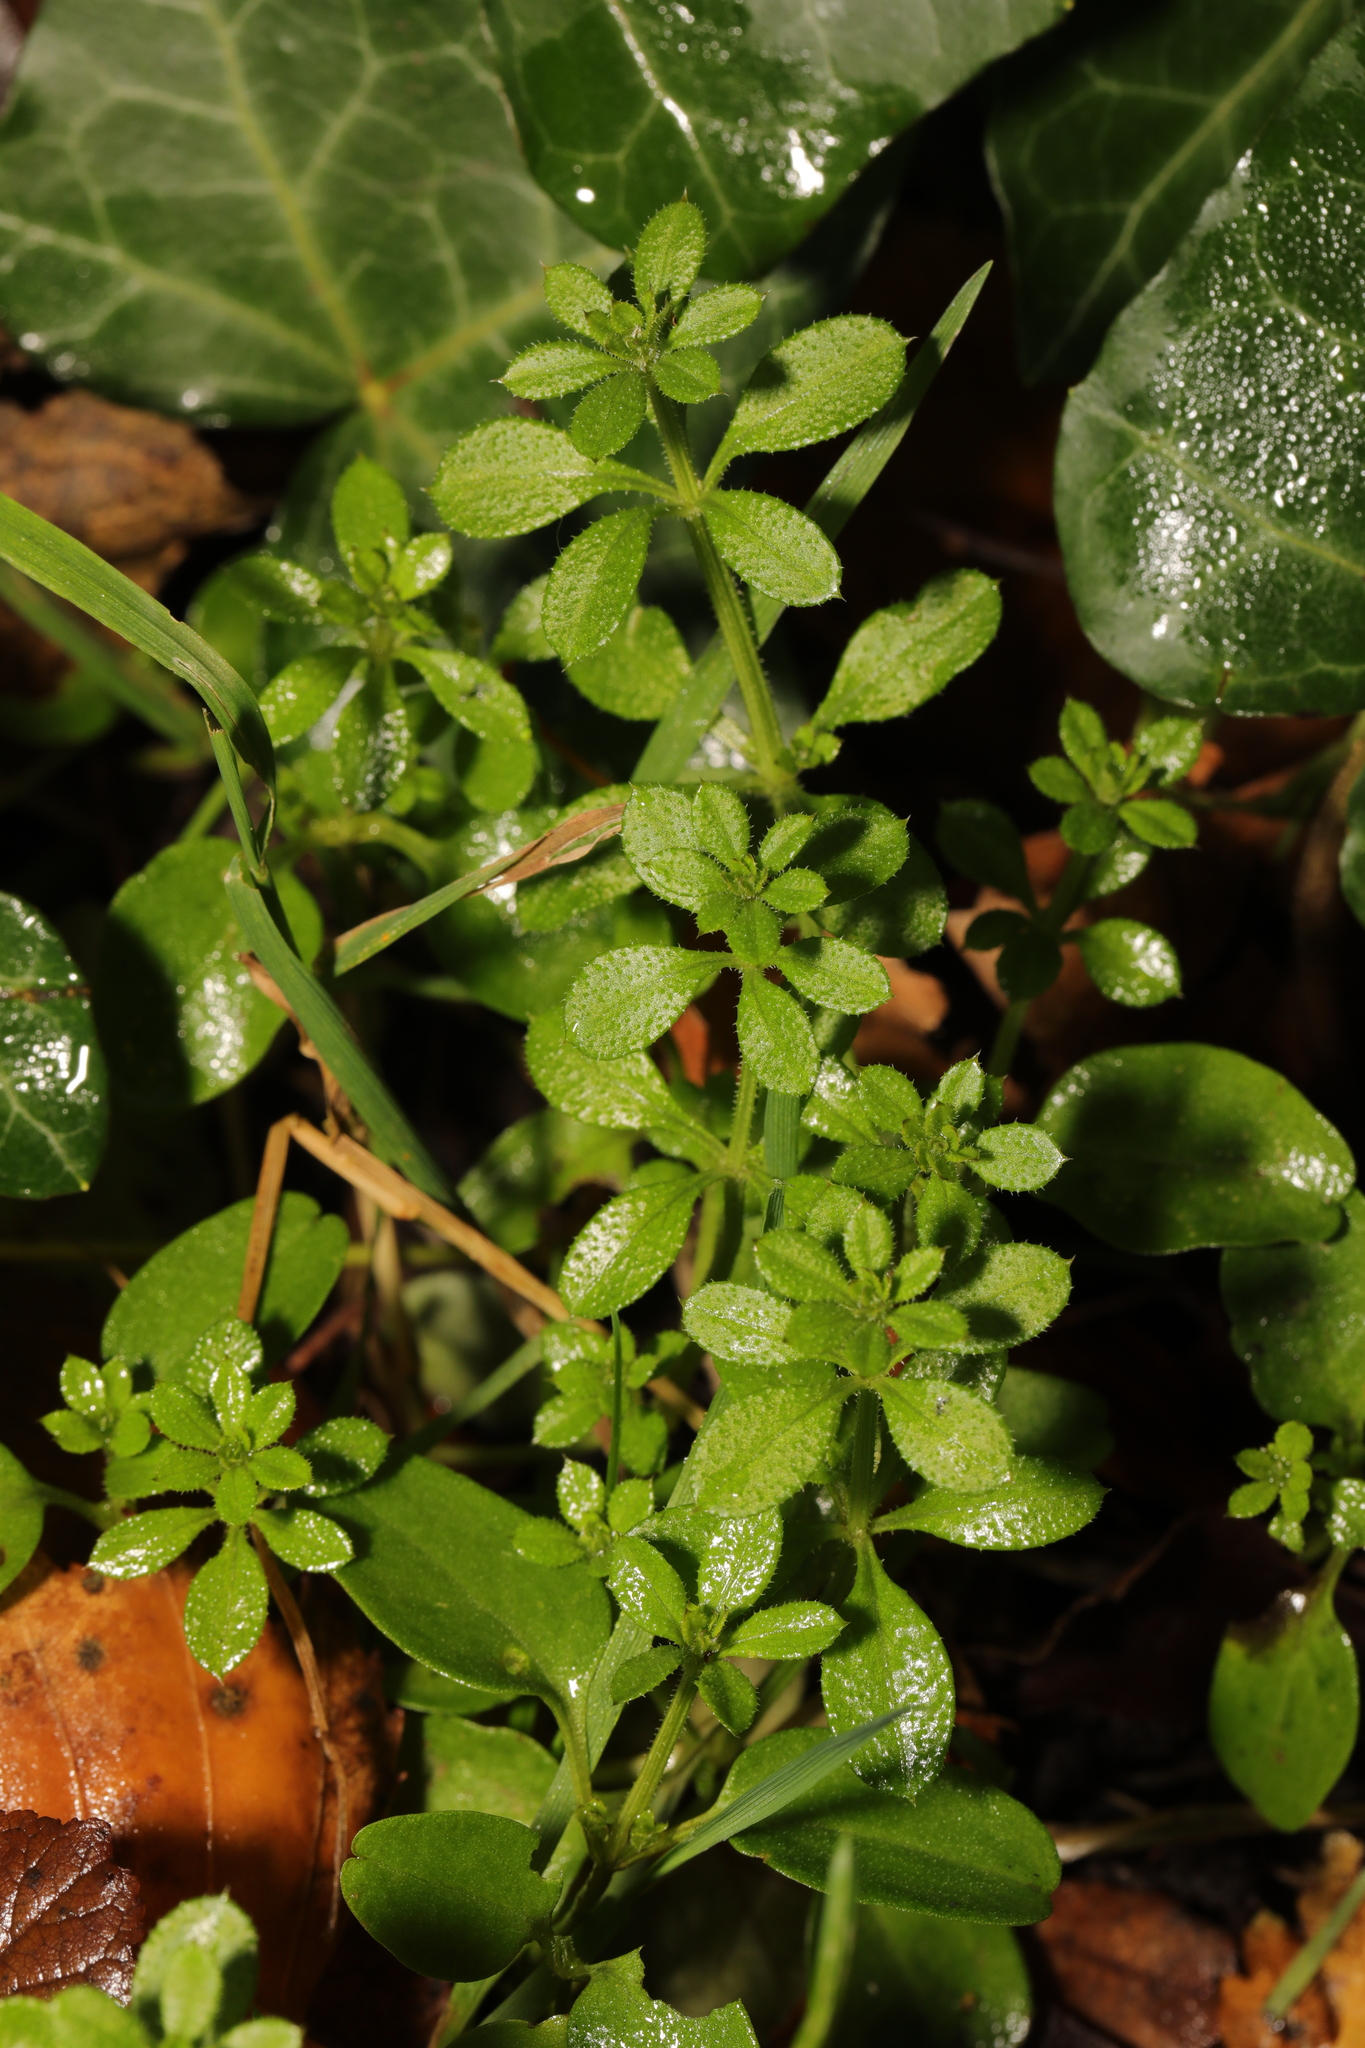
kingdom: Plantae
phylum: Tracheophyta
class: Magnoliopsida
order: Gentianales
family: Rubiaceae
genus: Galium
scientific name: Galium aparine
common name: Cleavers
